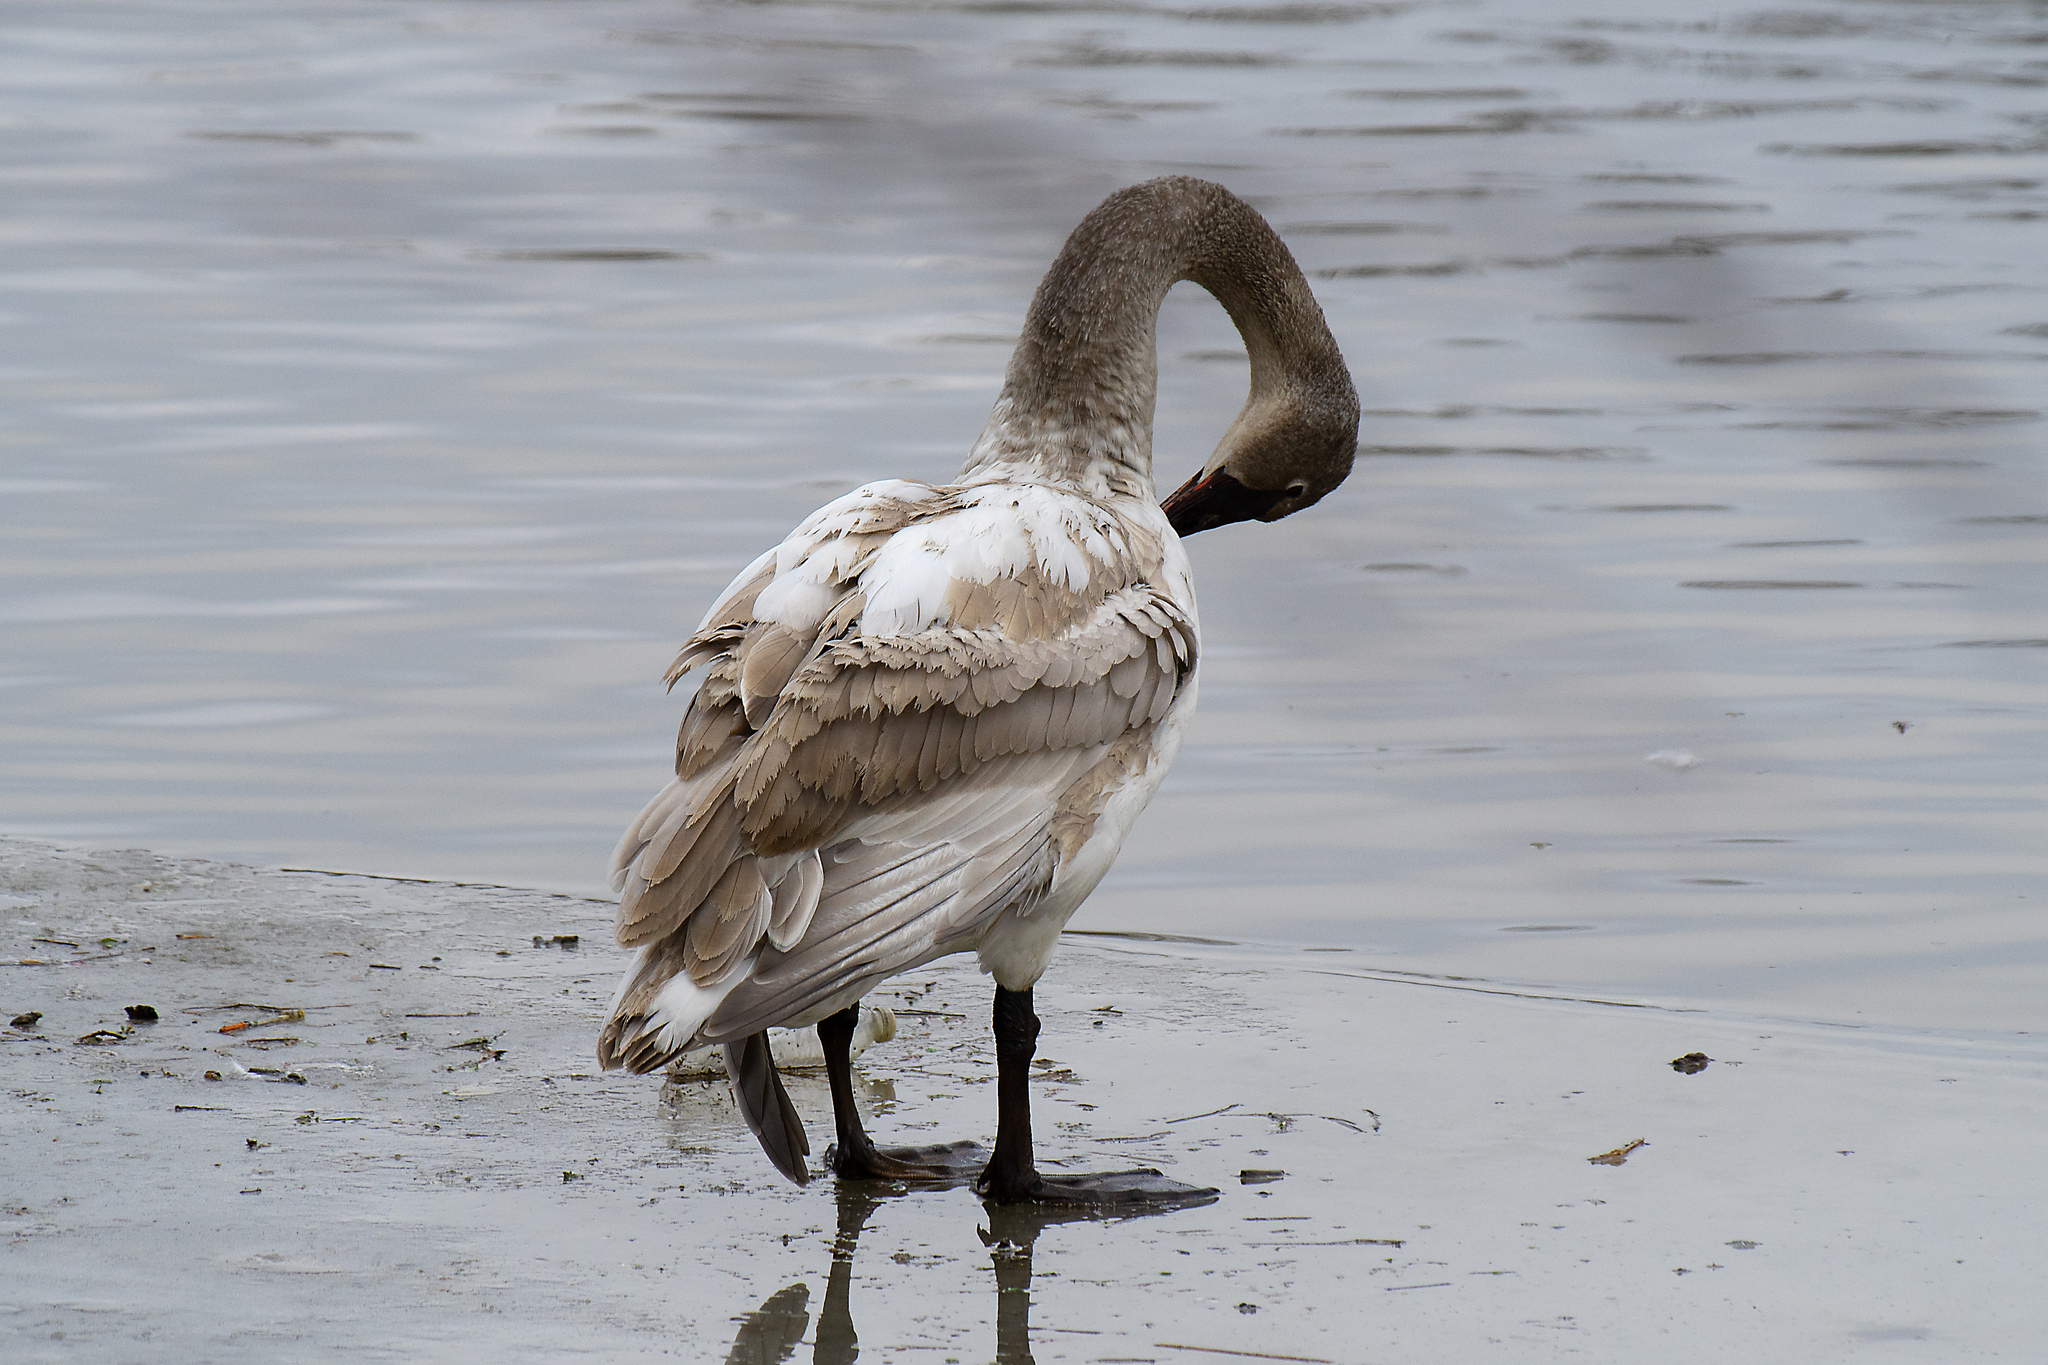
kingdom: Animalia
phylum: Chordata
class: Aves
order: Anseriformes
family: Anatidae
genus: Cygnus
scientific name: Cygnus buccinator
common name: Trumpeter swan
